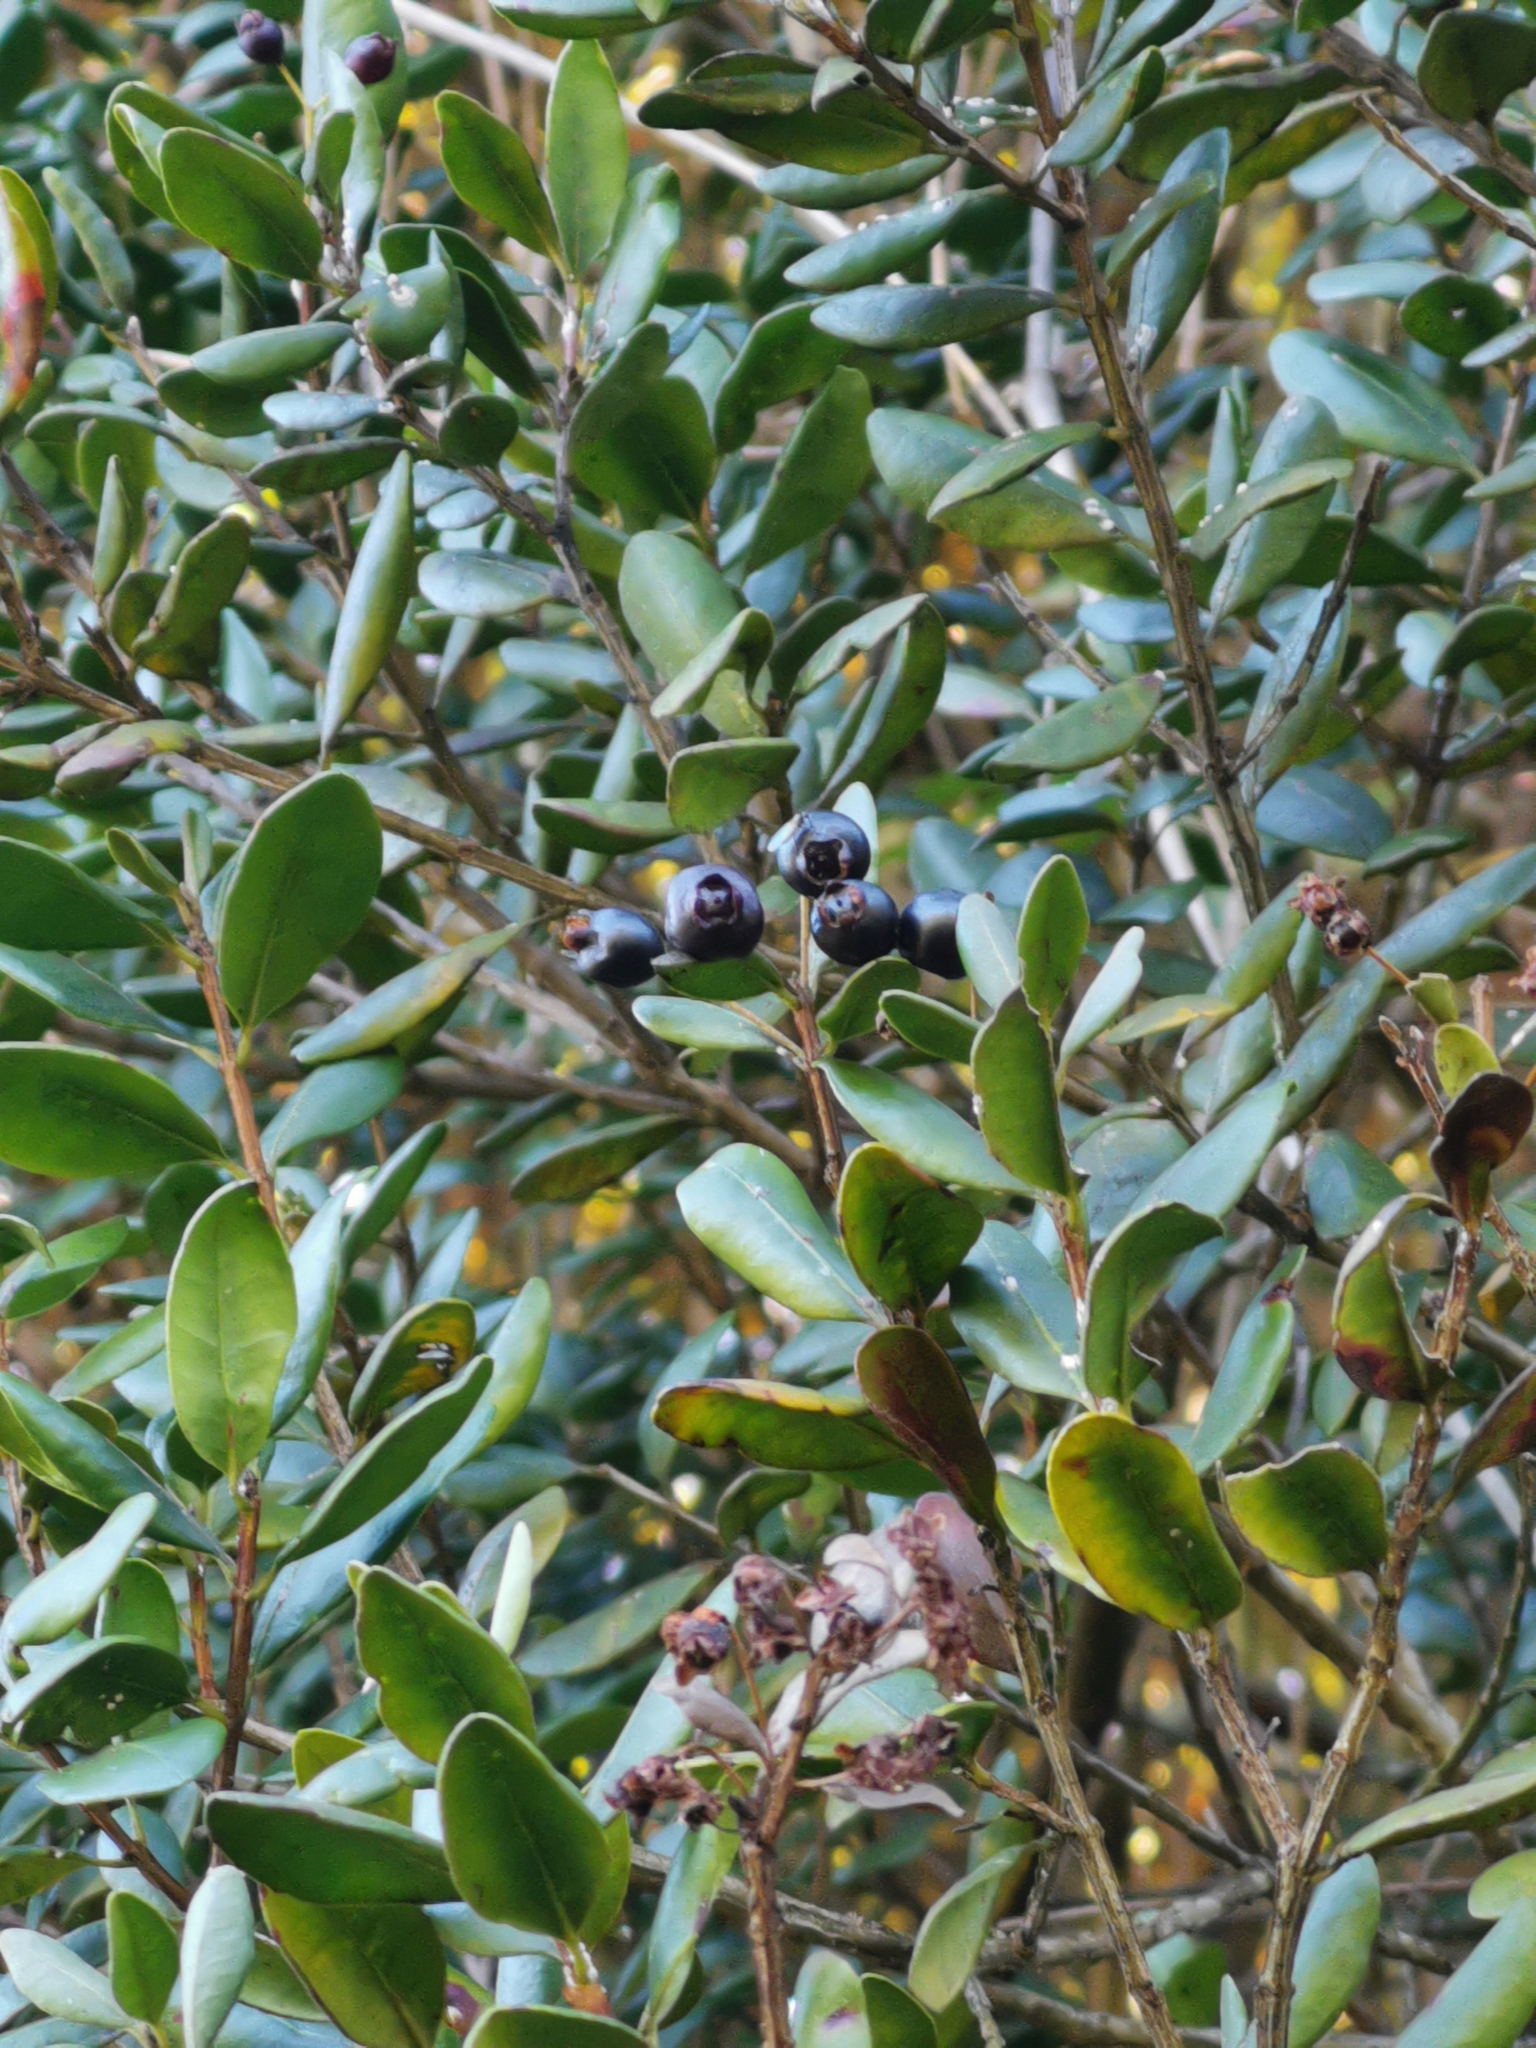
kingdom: Plantae
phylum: Tracheophyta
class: Magnoliopsida
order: Myrtales
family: Myrtaceae
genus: Blepharocalyx
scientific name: Blepharocalyx cruckshanksii
